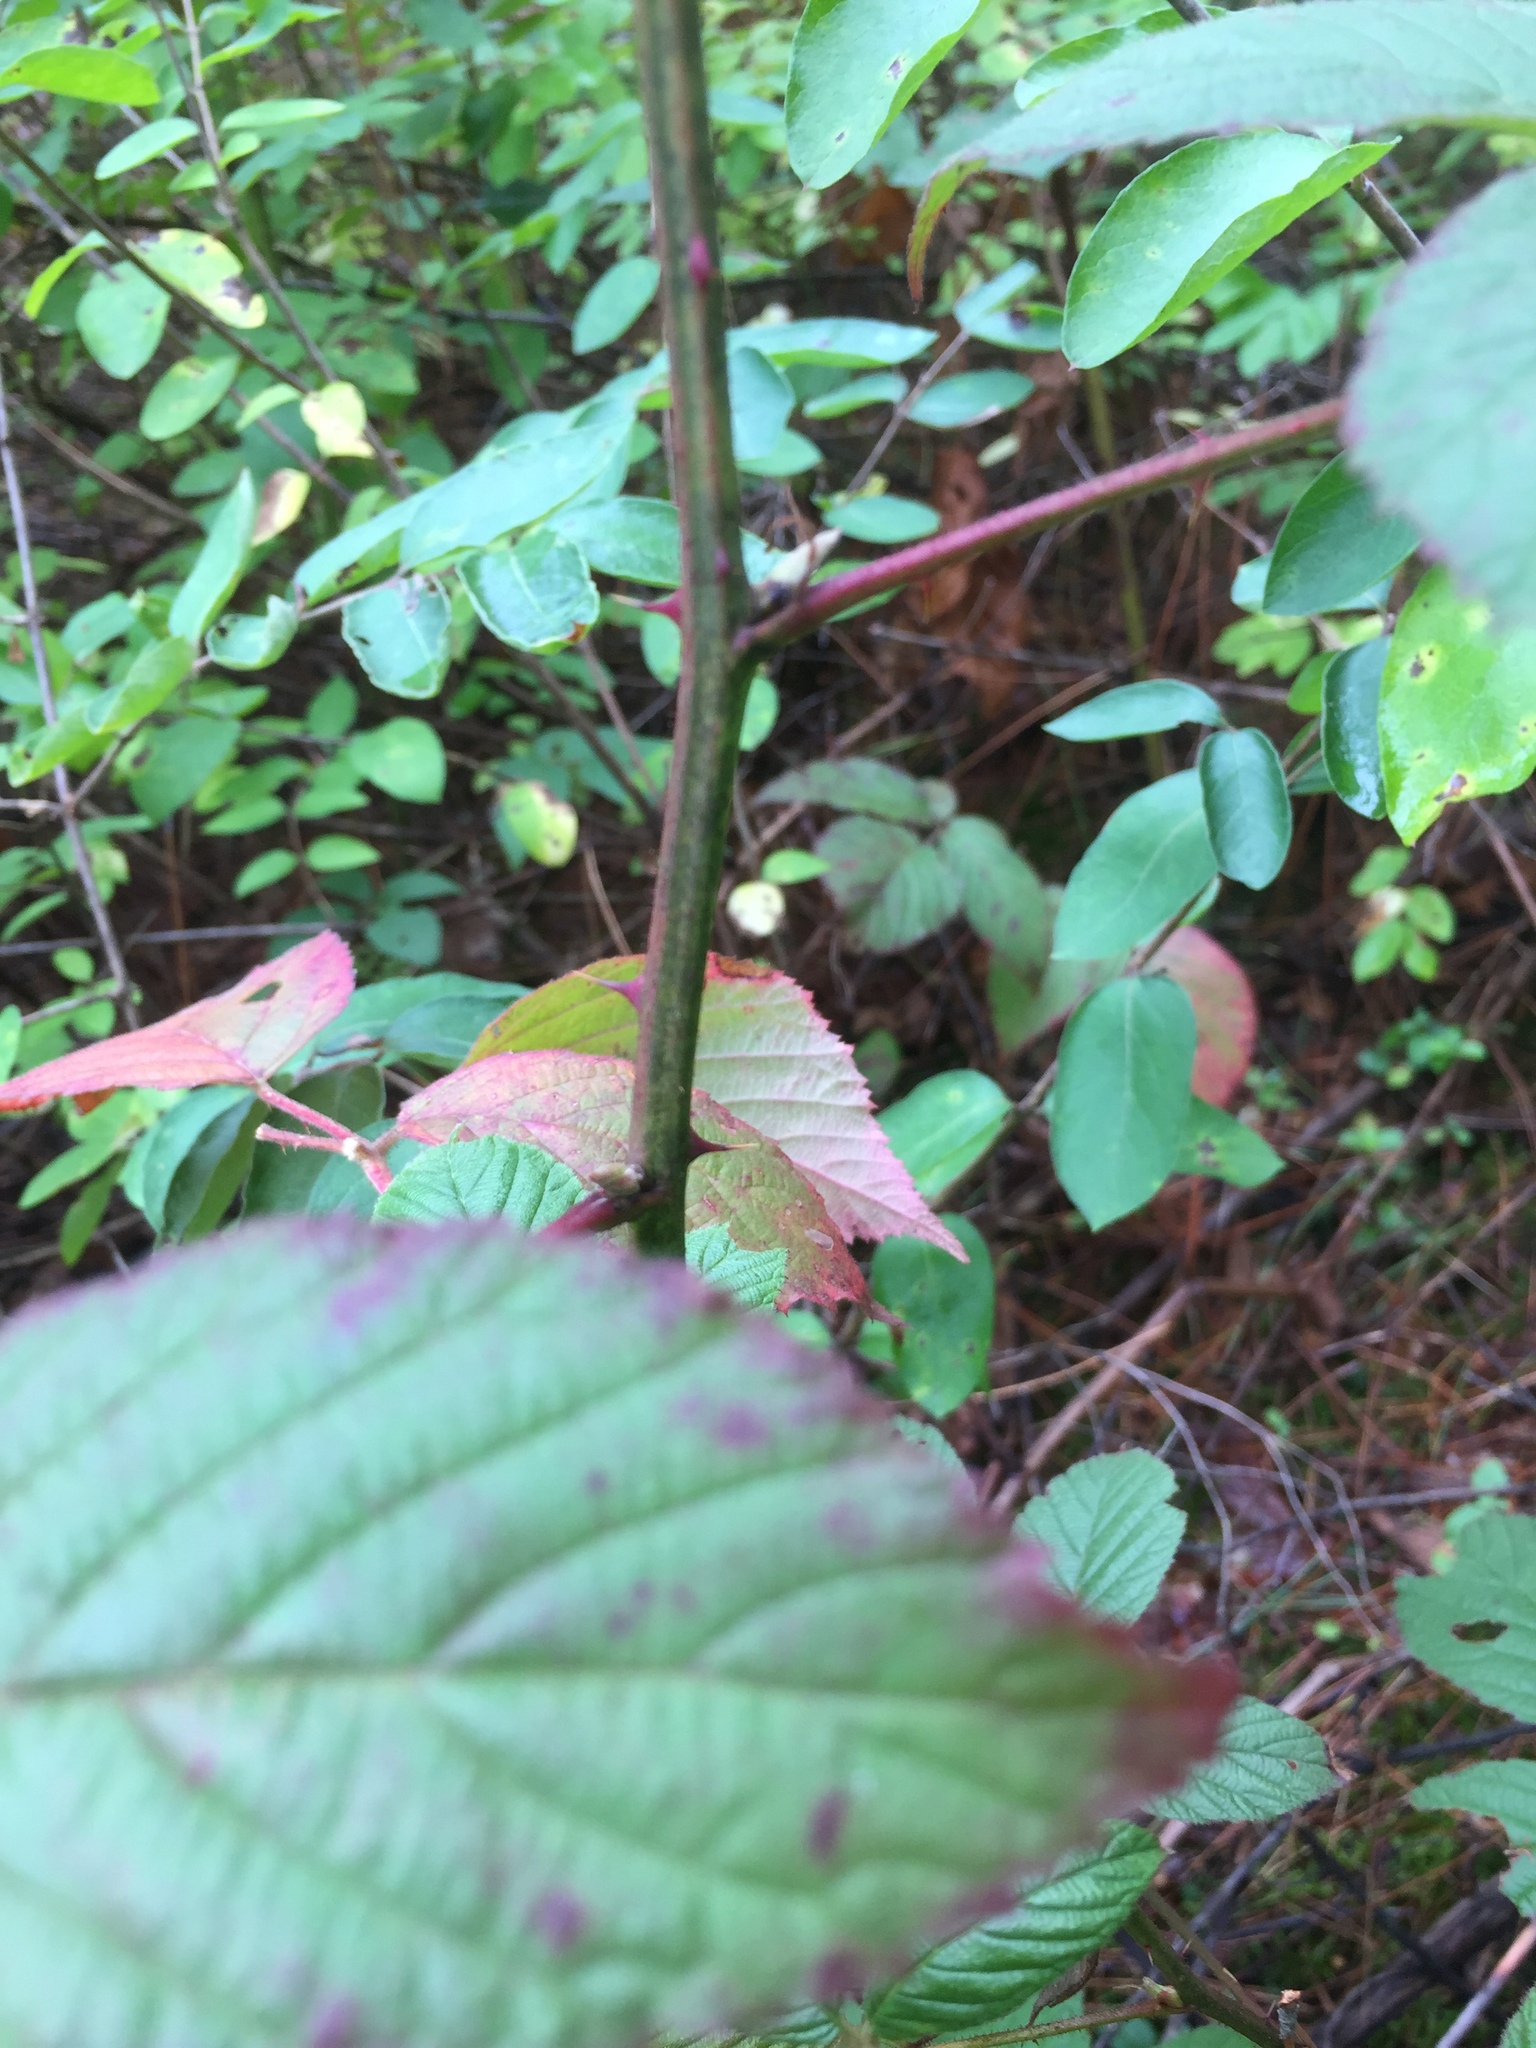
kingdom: Plantae
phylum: Tracheophyta
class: Magnoliopsida
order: Rosales
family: Rosaceae
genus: Rubus
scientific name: Rubus allegheniensis
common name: Allegheny blackberry
